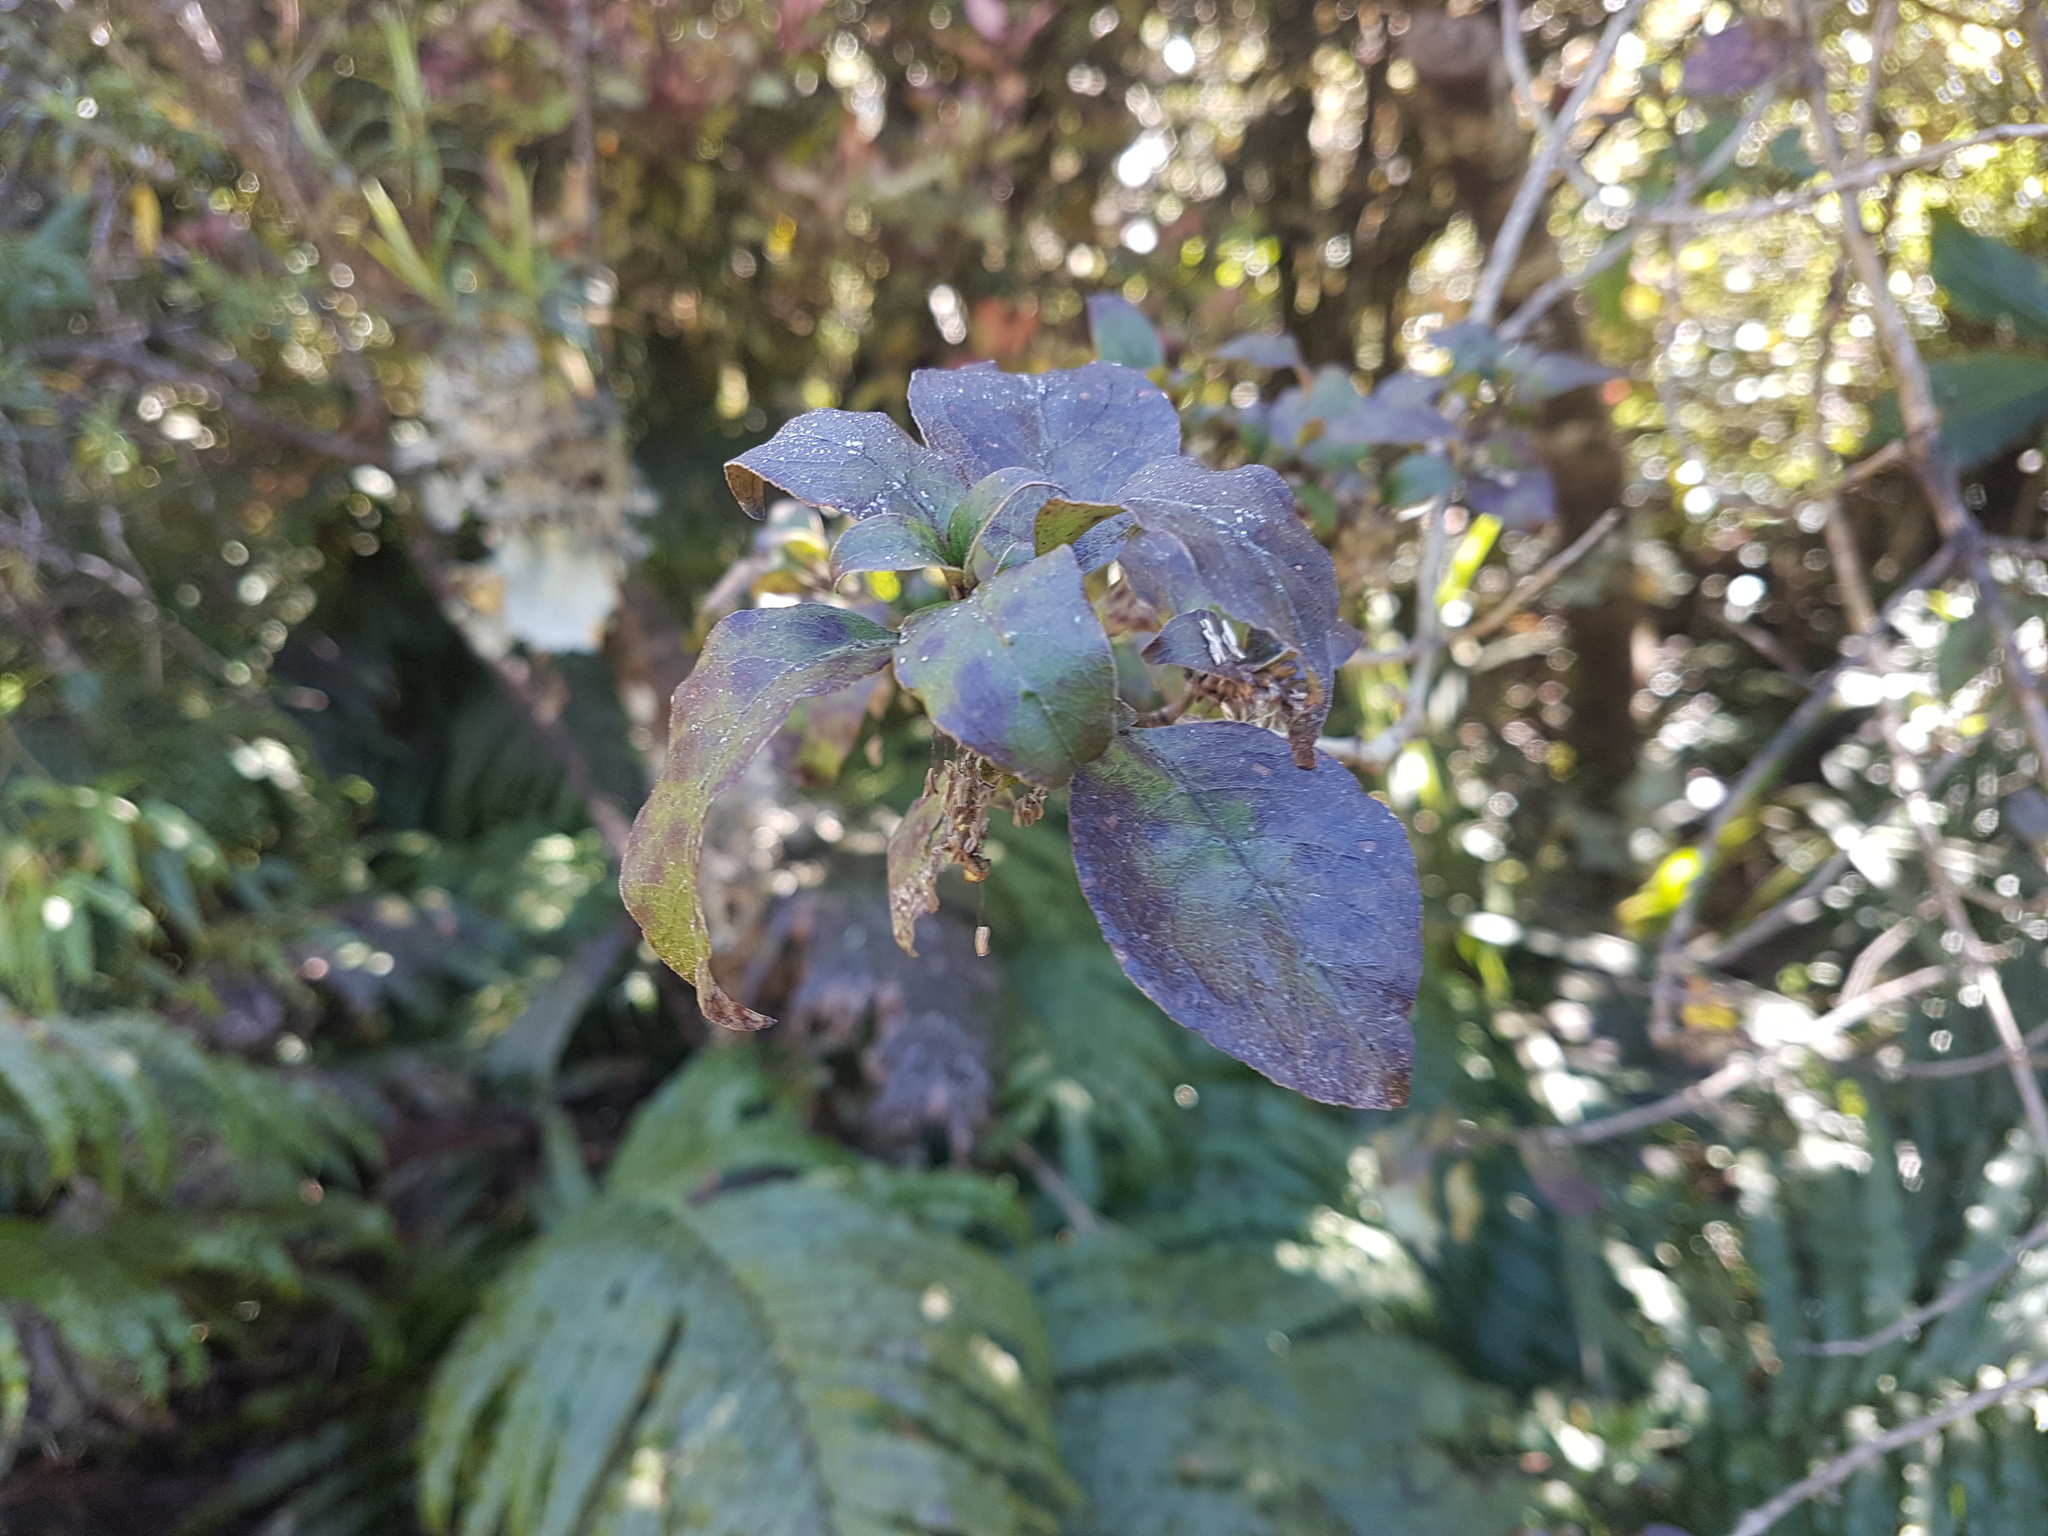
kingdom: Plantae
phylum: Tracheophyta
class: Magnoliopsida
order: Gentianales
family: Rubiaceae
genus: Coprosma
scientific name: Coprosma tenuifolia
